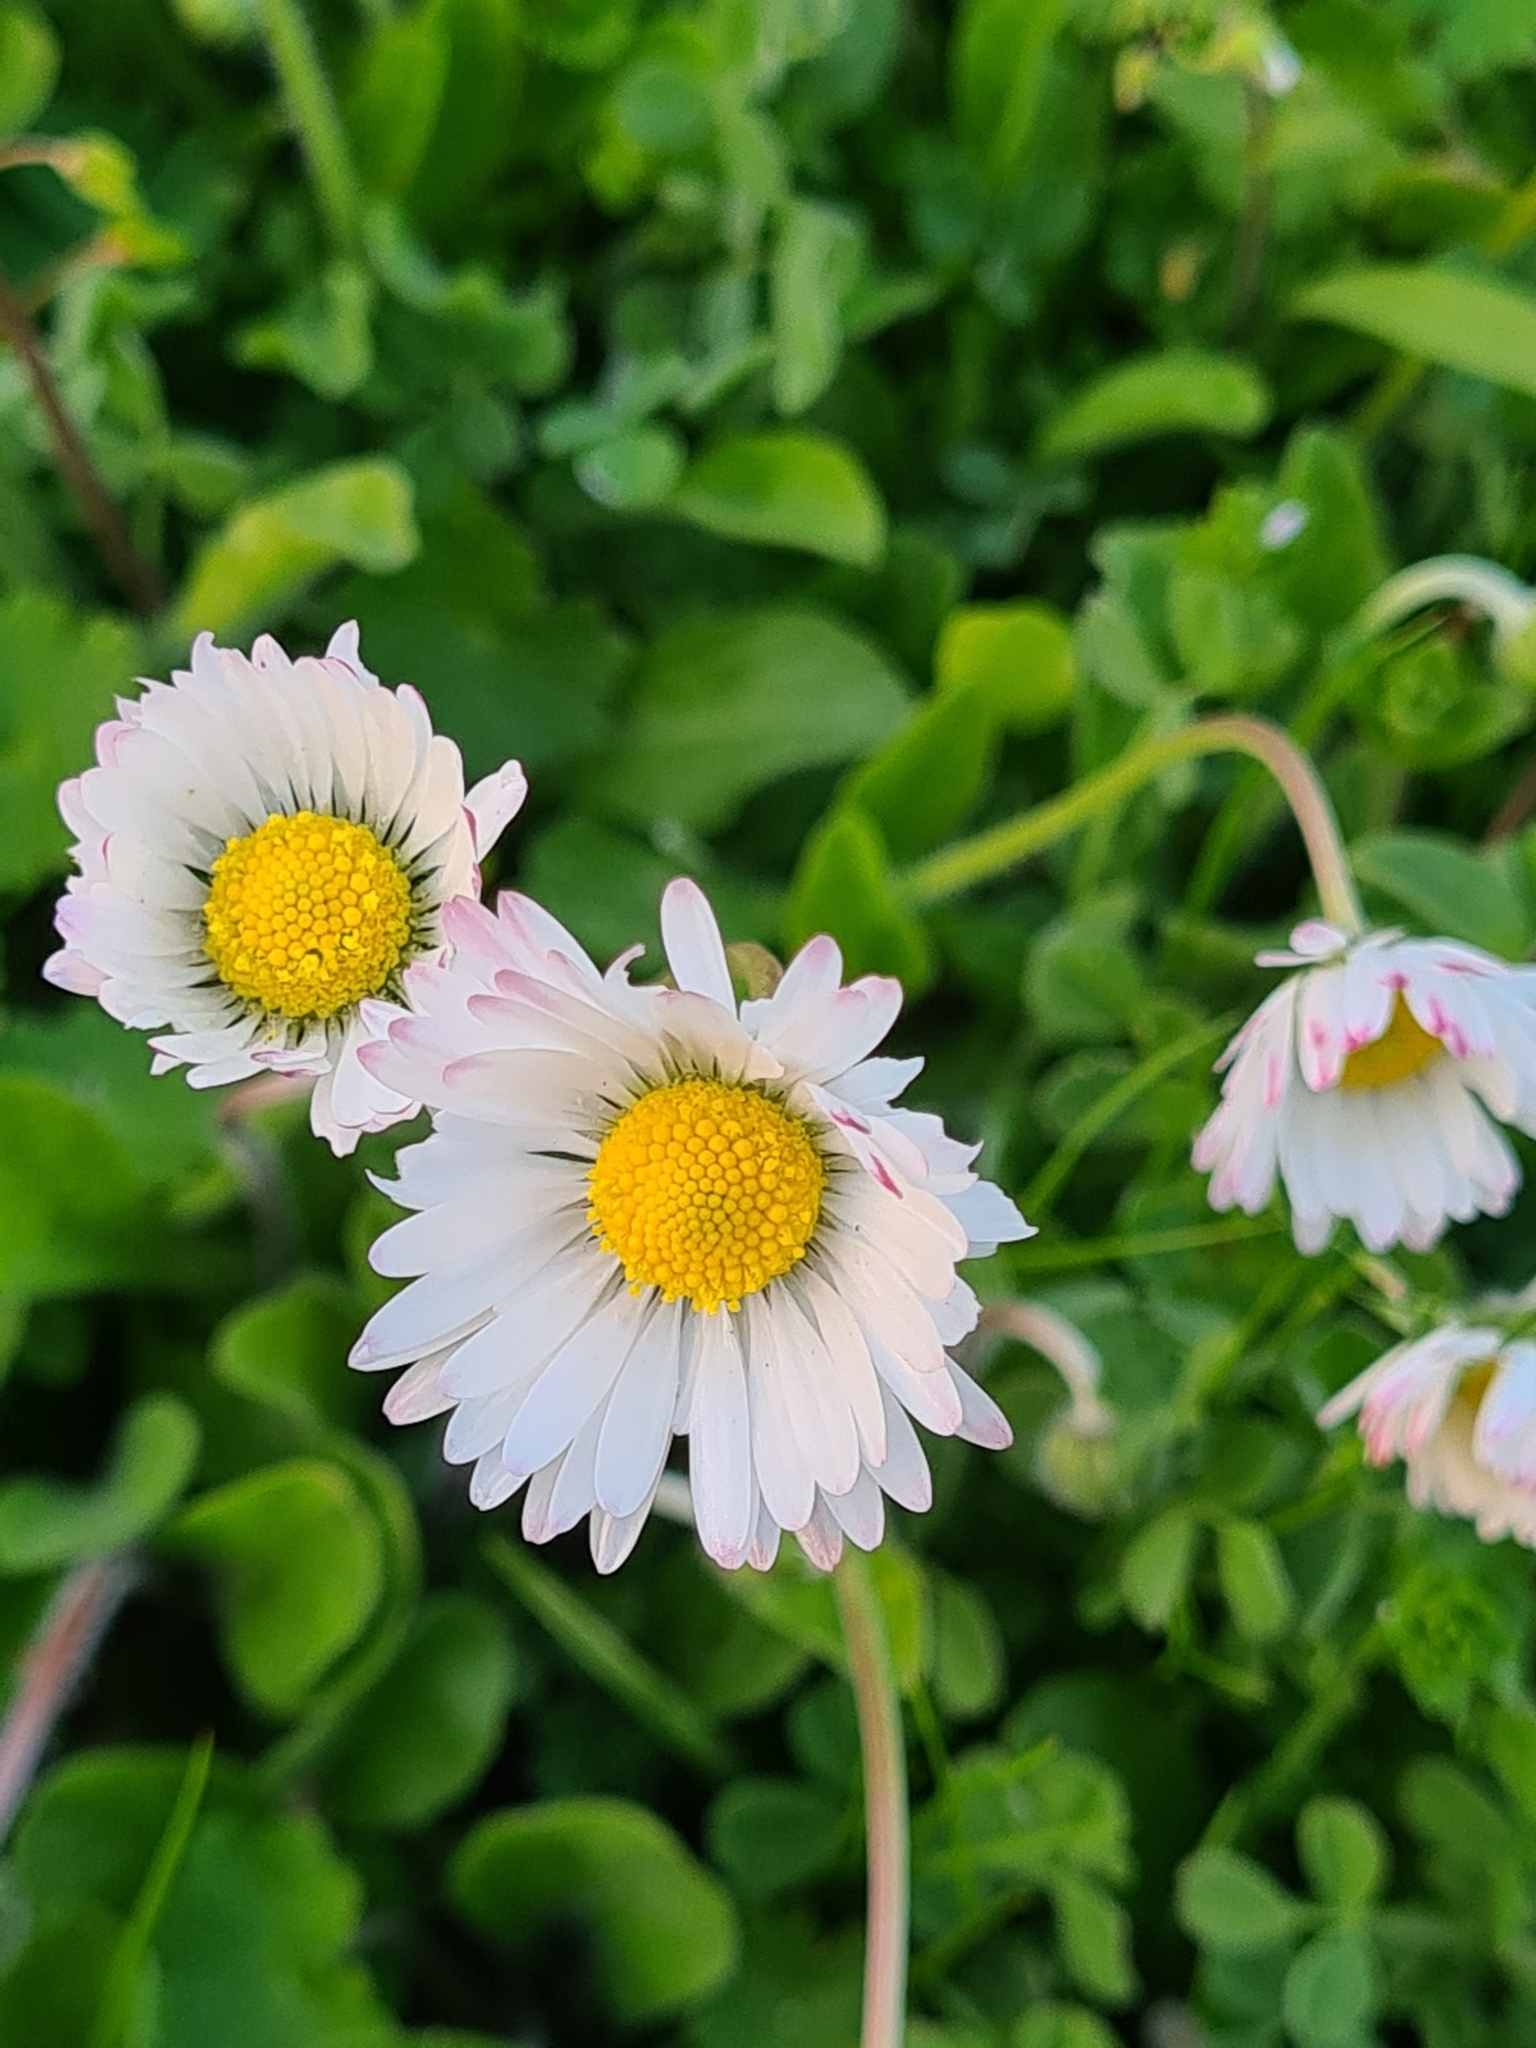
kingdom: Plantae
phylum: Tracheophyta
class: Magnoliopsida
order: Asterales
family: Asteraceae
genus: Bellis
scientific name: Bellis perennis
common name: Lawndaisy
